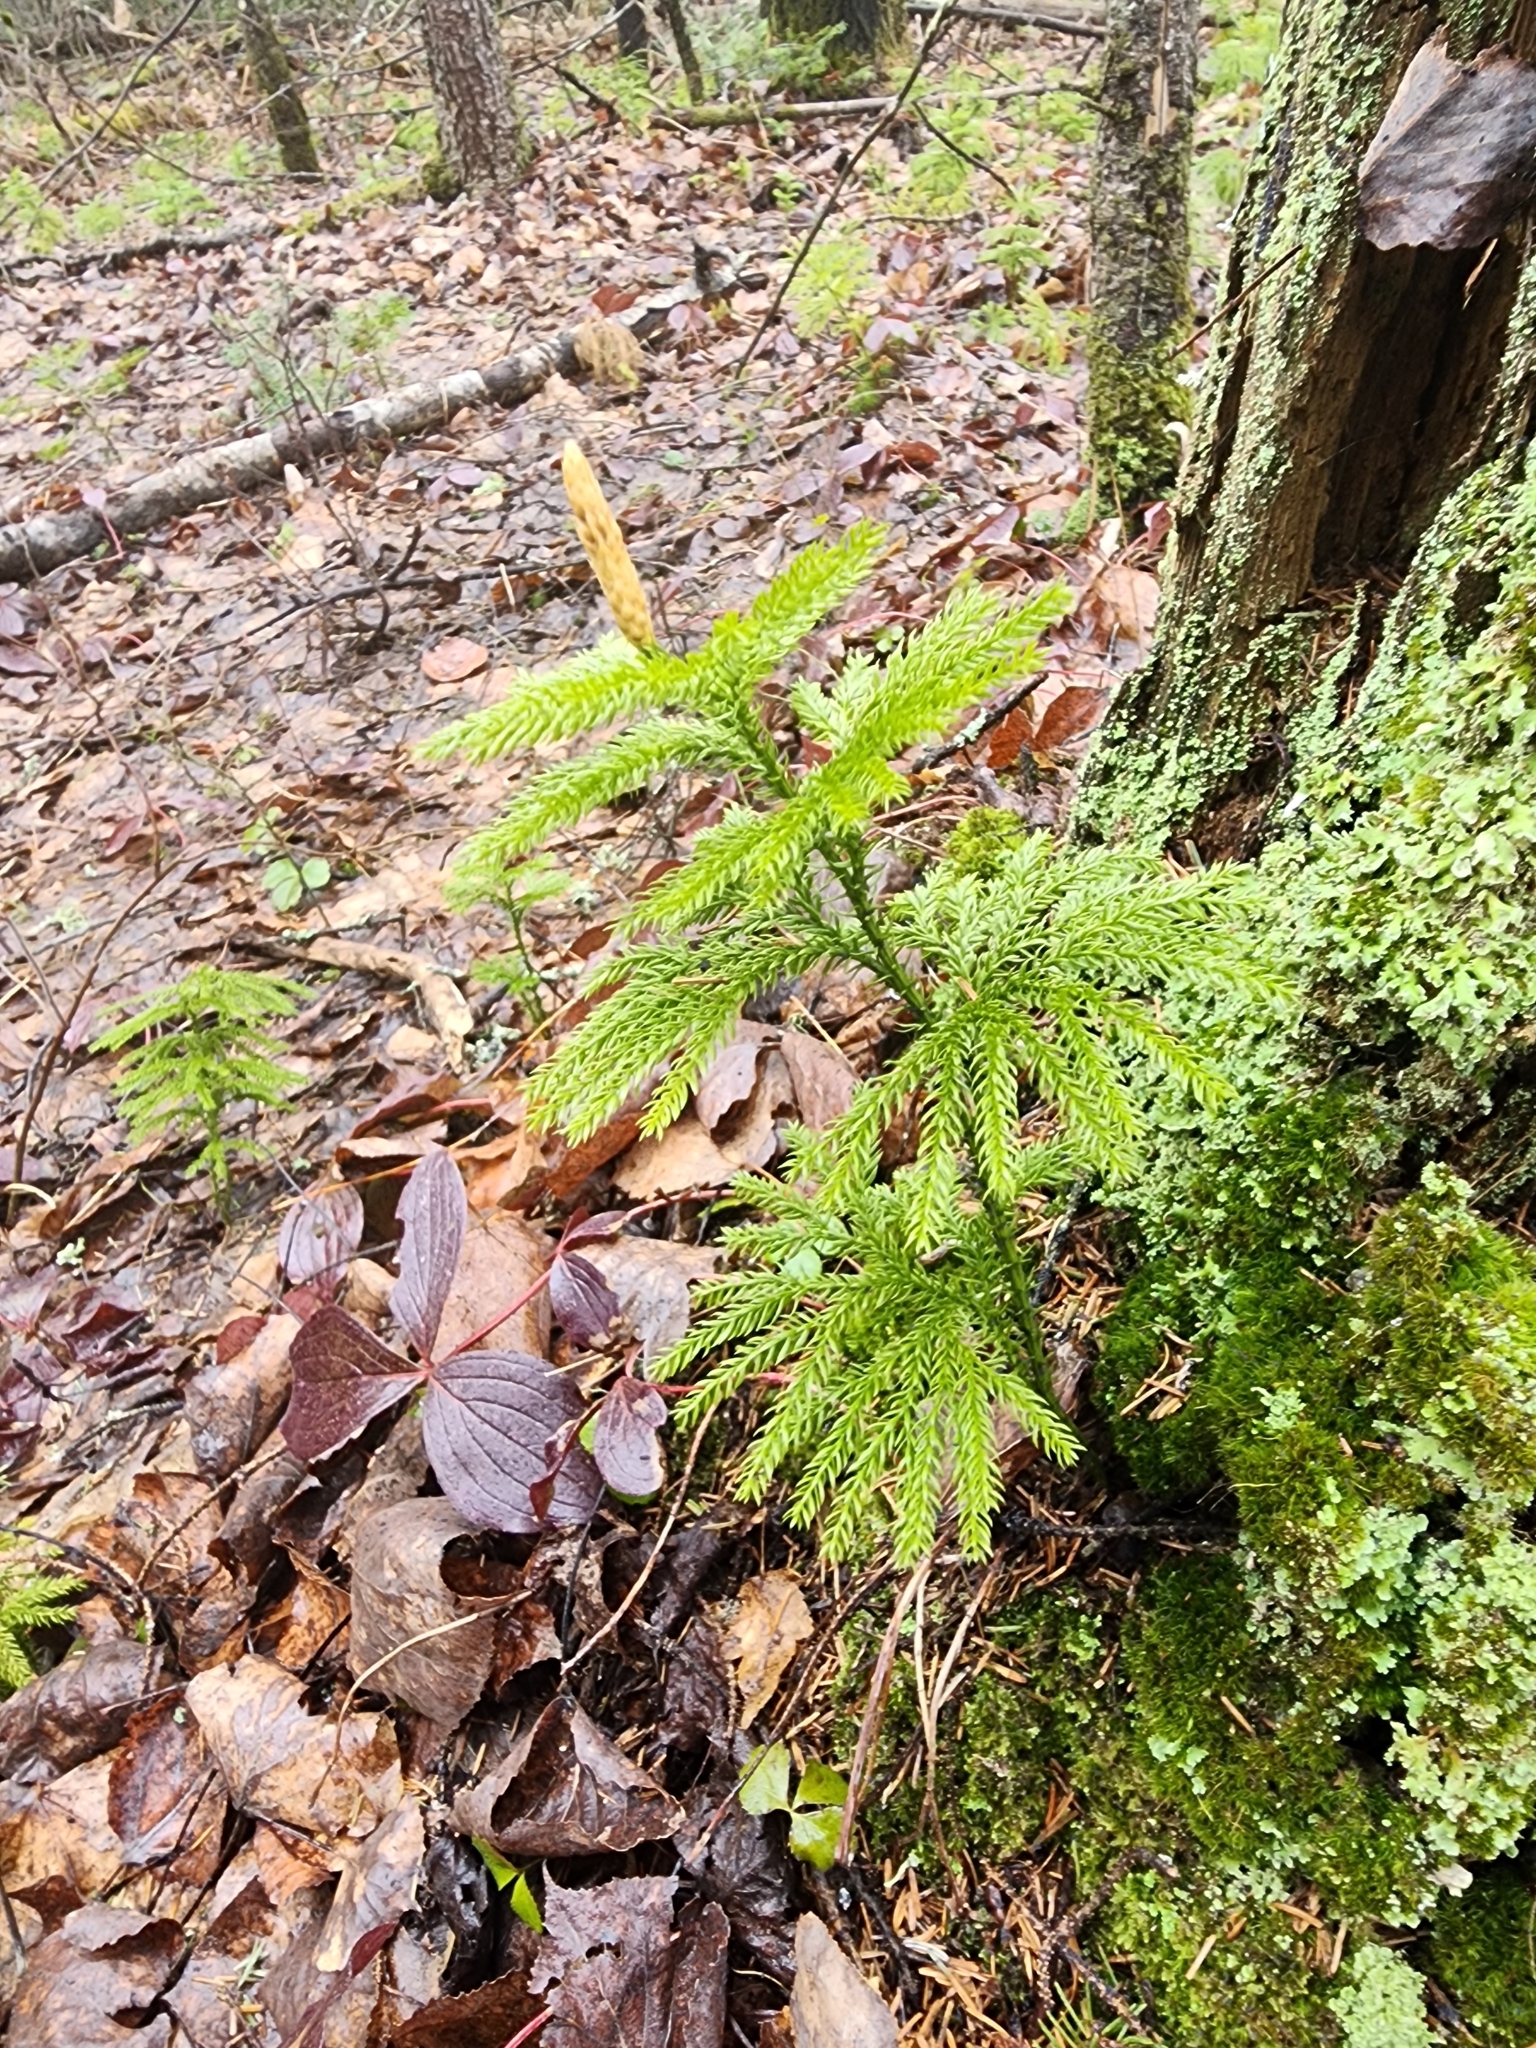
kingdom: Plantae
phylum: Tracheophyta
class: Lycopodiopsida
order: Lycopodiales
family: Lycopodiaceae
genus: Dendrolycopodium
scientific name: Dendrolycopodium dendroideum
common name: Northern tree-clubmoss
